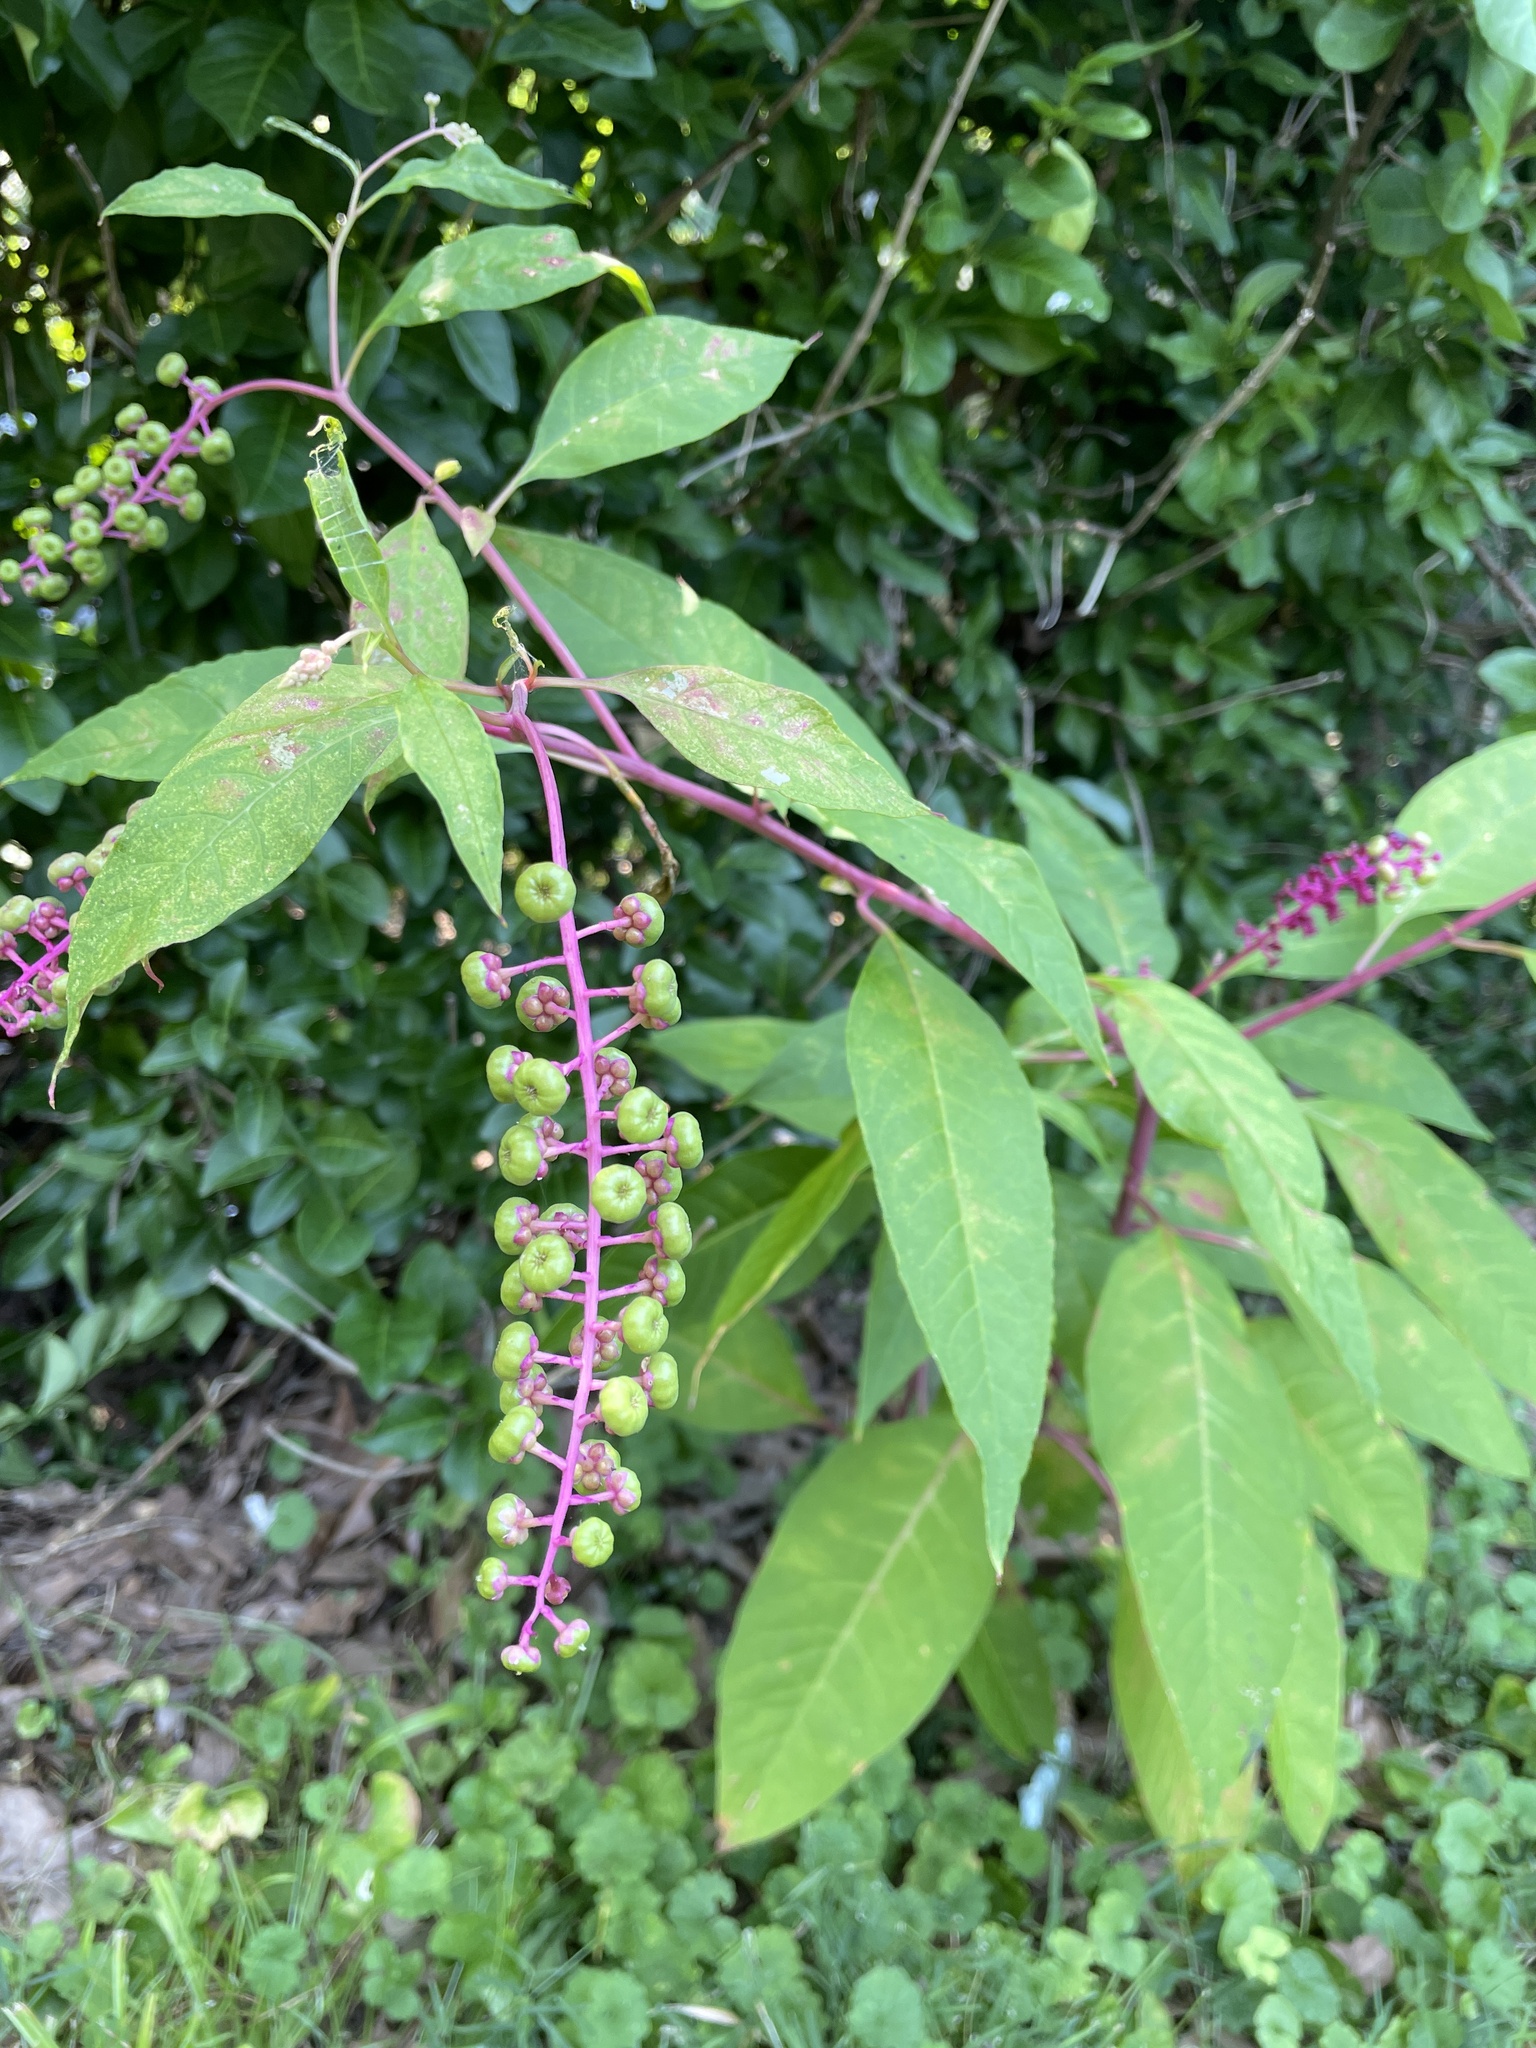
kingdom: Plantae
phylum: Tracheophyta
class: Magnoliopsida
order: Caryophyllales
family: Phytolaccaceae
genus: Phytolacca
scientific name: Phytolacca americana
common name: American pokeweed
